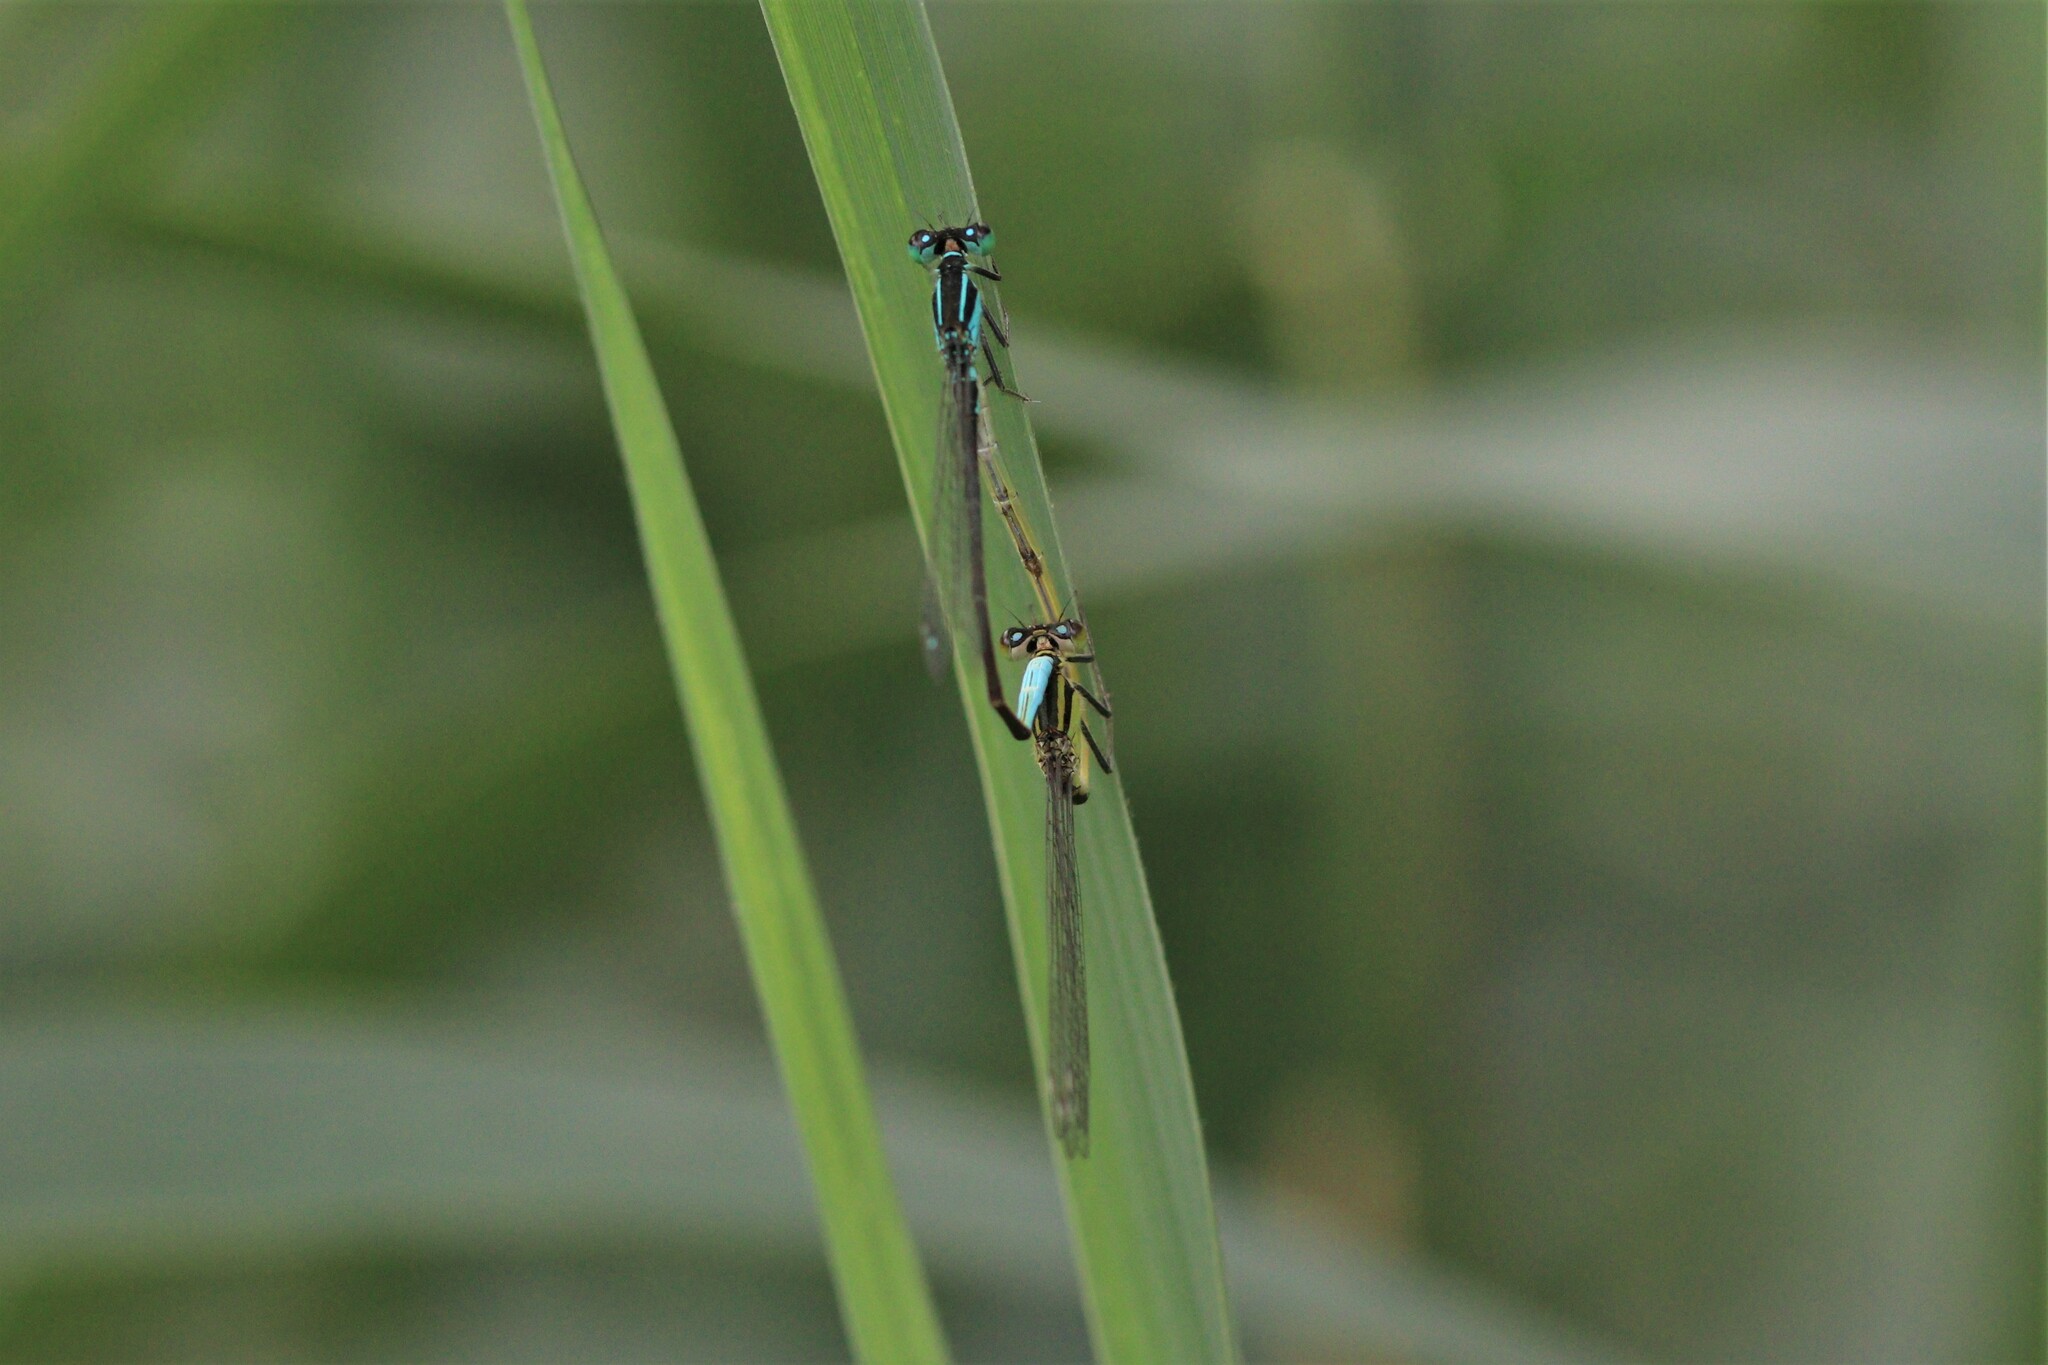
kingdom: Animalia
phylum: Arthropoda
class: Insecta
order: Odonata
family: Coenagrionidae
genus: Ischnura
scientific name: Ischnura elegans
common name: Blue-tailed damselfly
